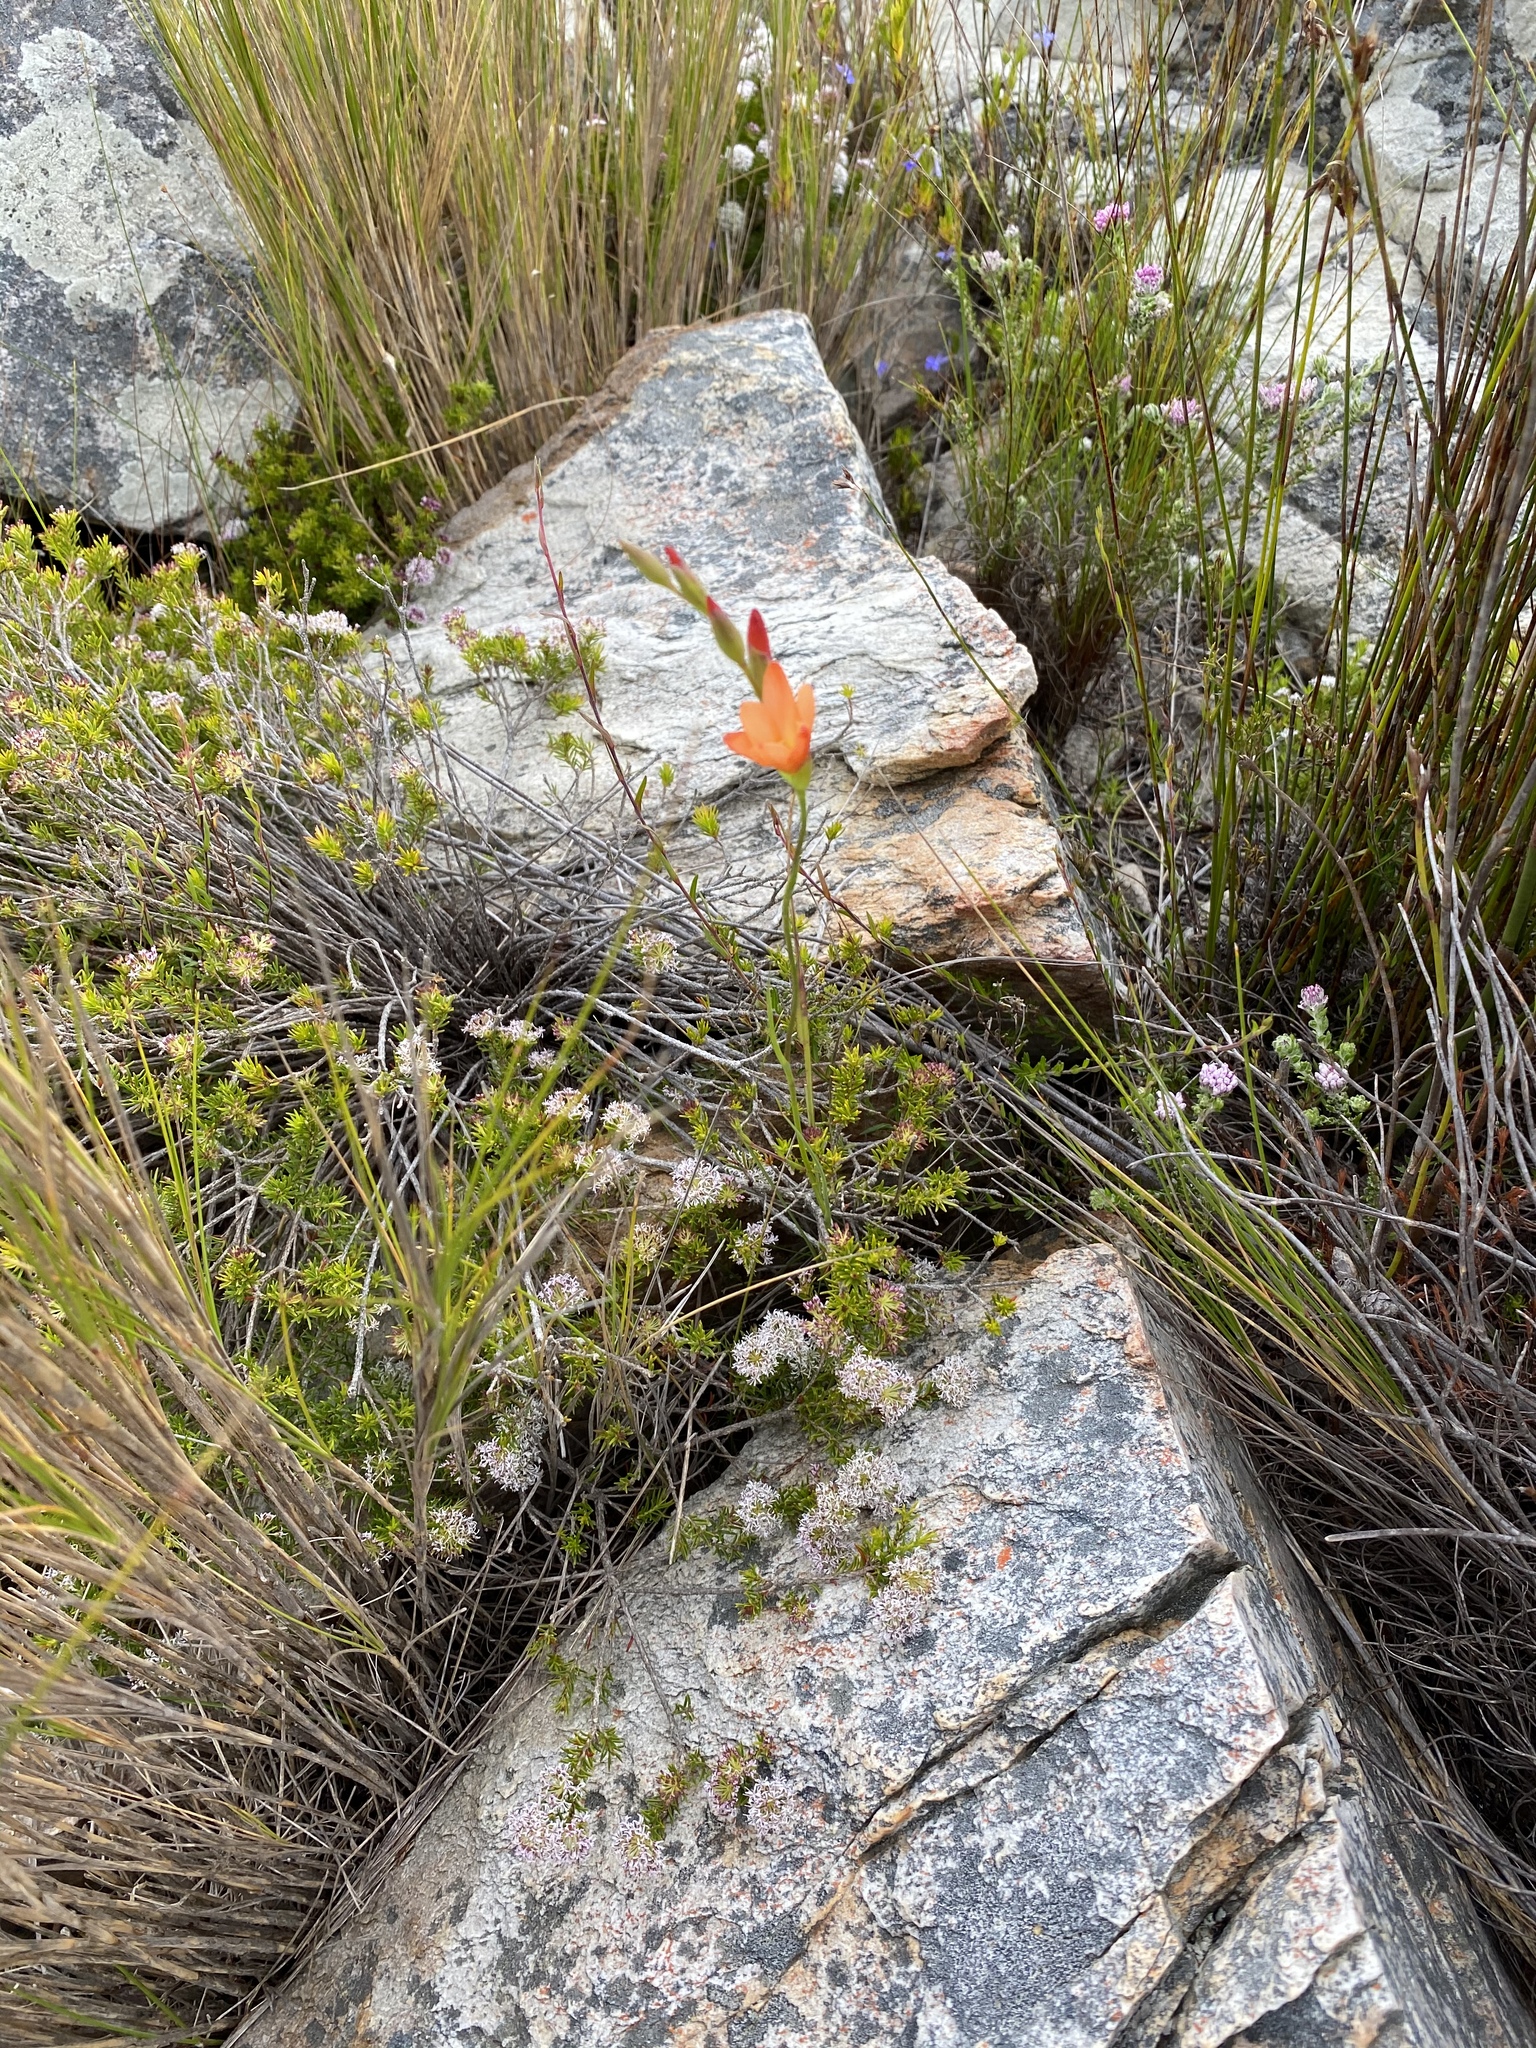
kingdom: Plantae
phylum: Tracheophyta
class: Liliopsida
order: Asparagales
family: Iridaceae
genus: Gladiolus
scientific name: Gladiolus brevitubus
